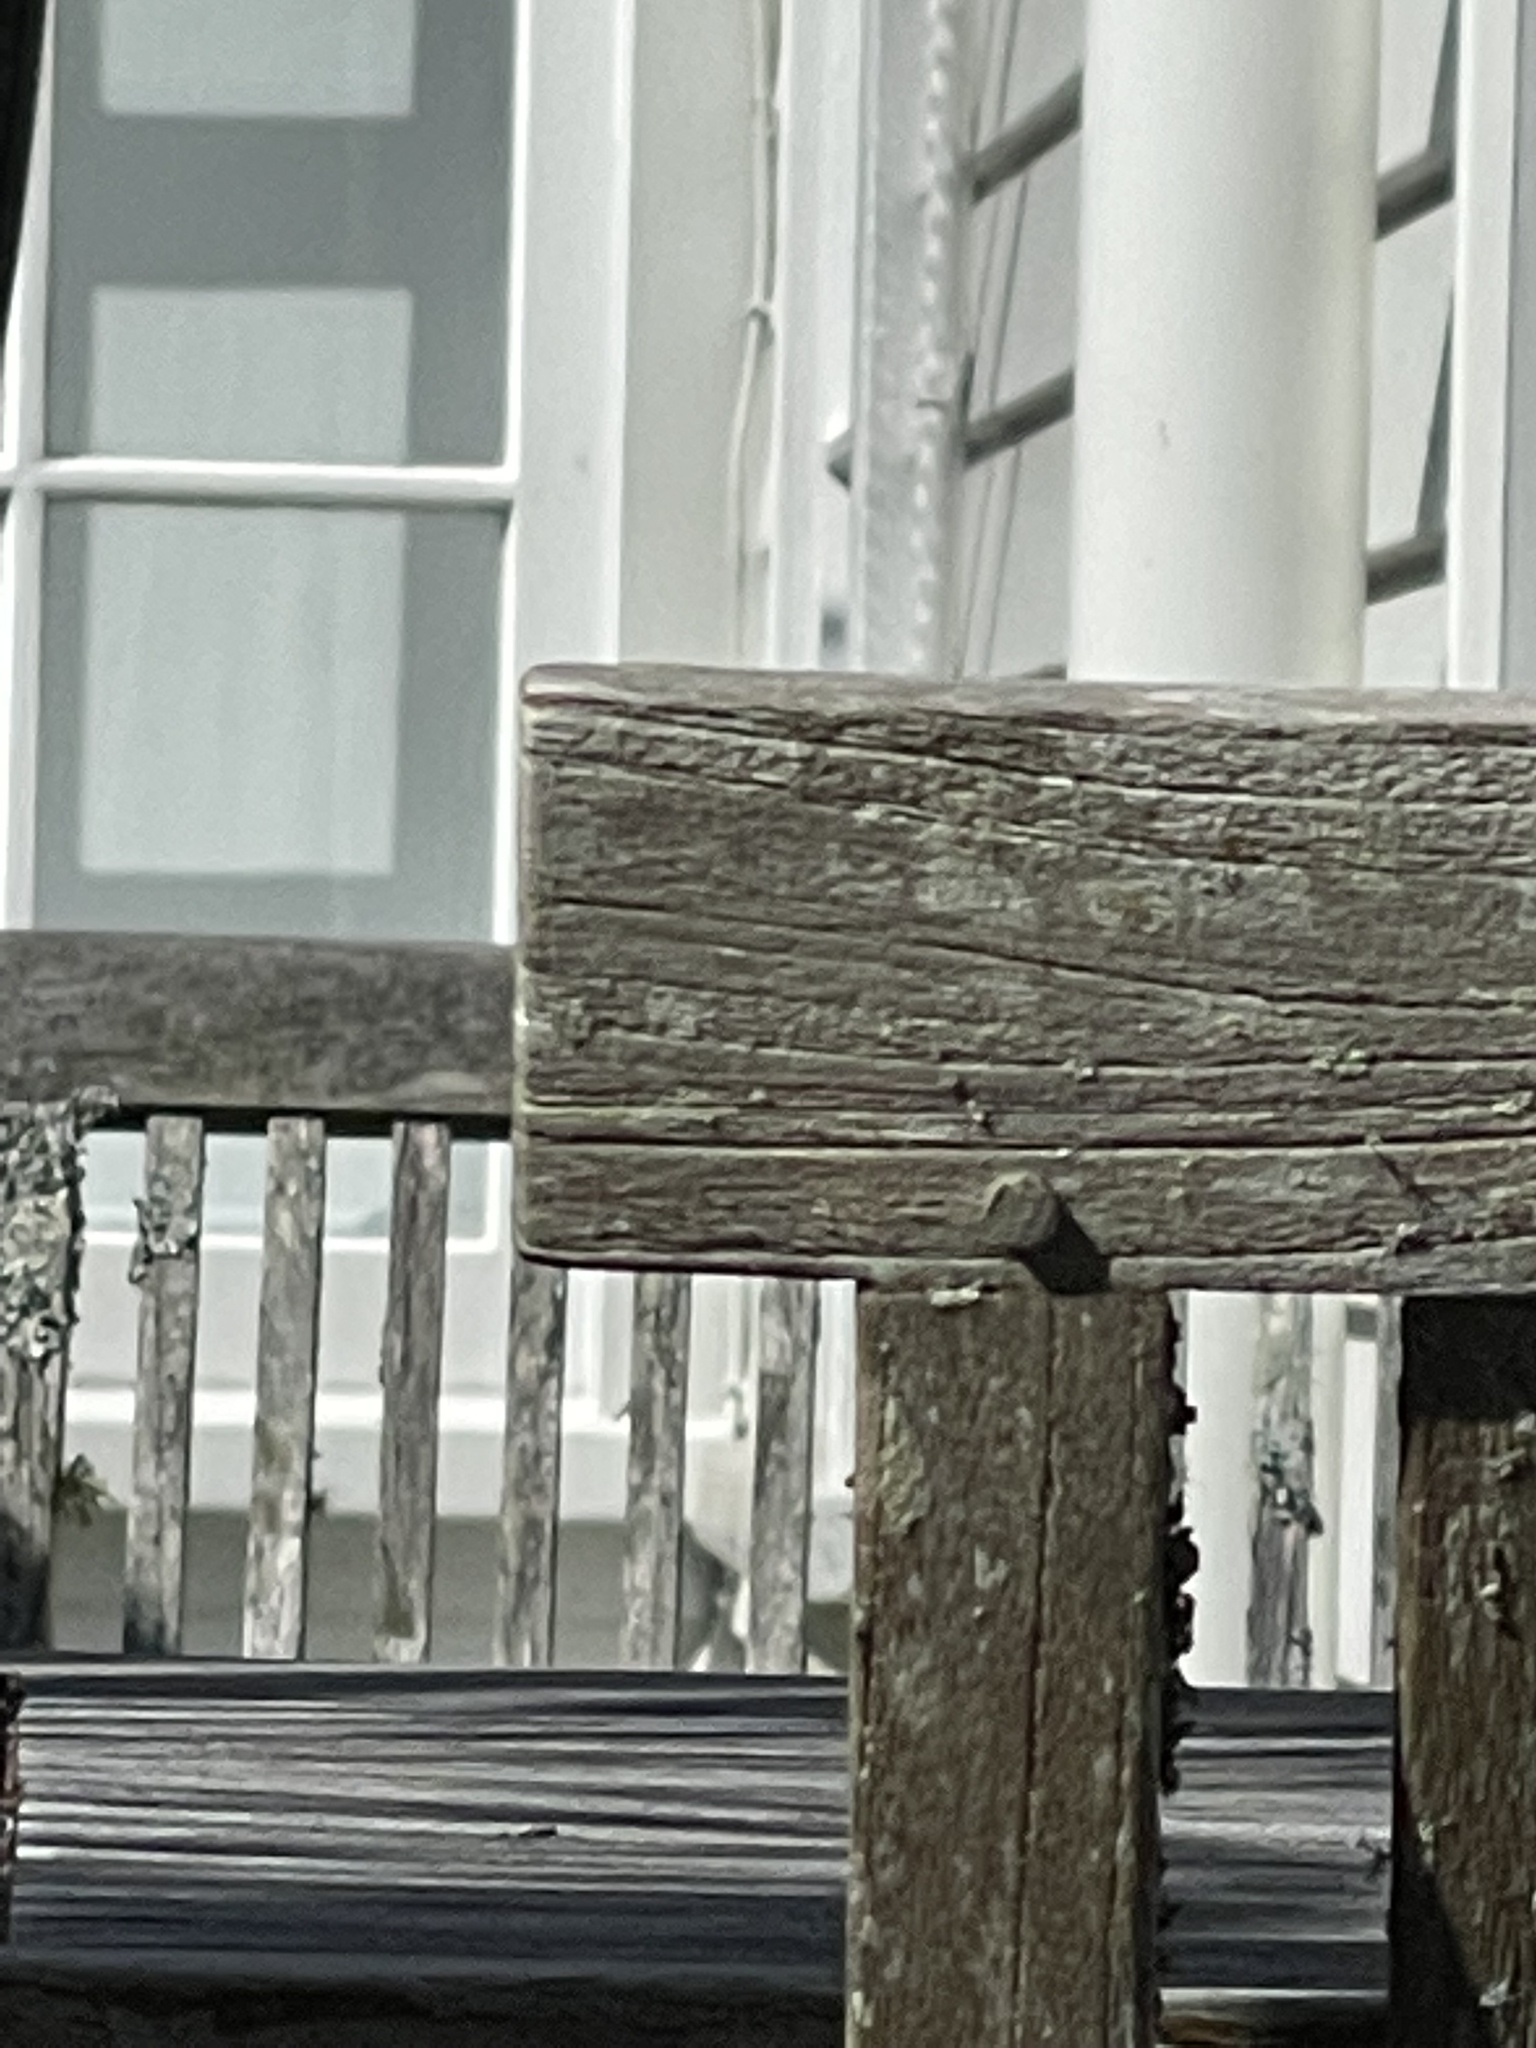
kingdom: Animalia
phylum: Arthropoda
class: Insecta
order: Hymenoptera
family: Eumenidae
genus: Polistes
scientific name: Polistes chinensis
